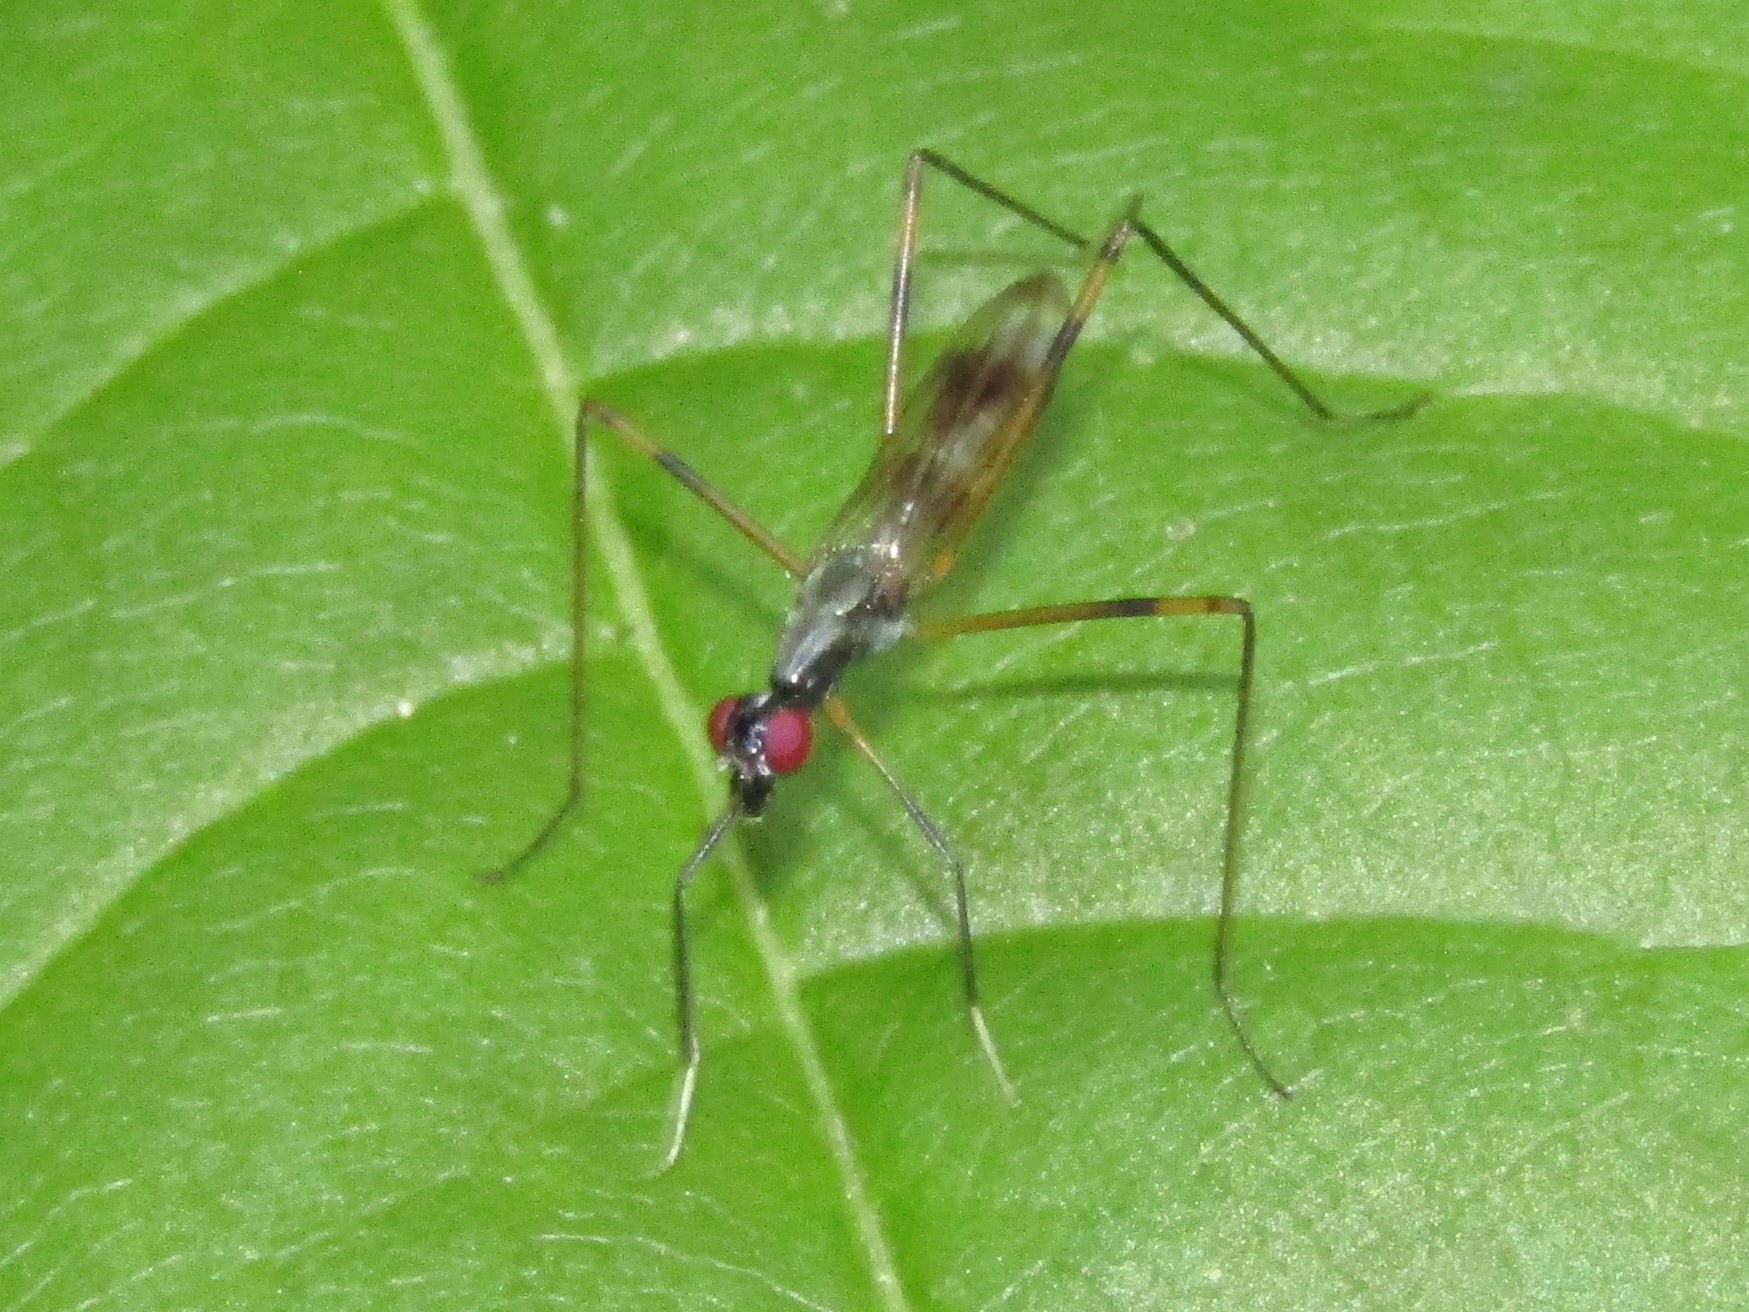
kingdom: Animalia
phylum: Arthropoda
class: Insecta
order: Diptera
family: Micropezidae
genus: Rainieria
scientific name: Rainieria antennaepes
